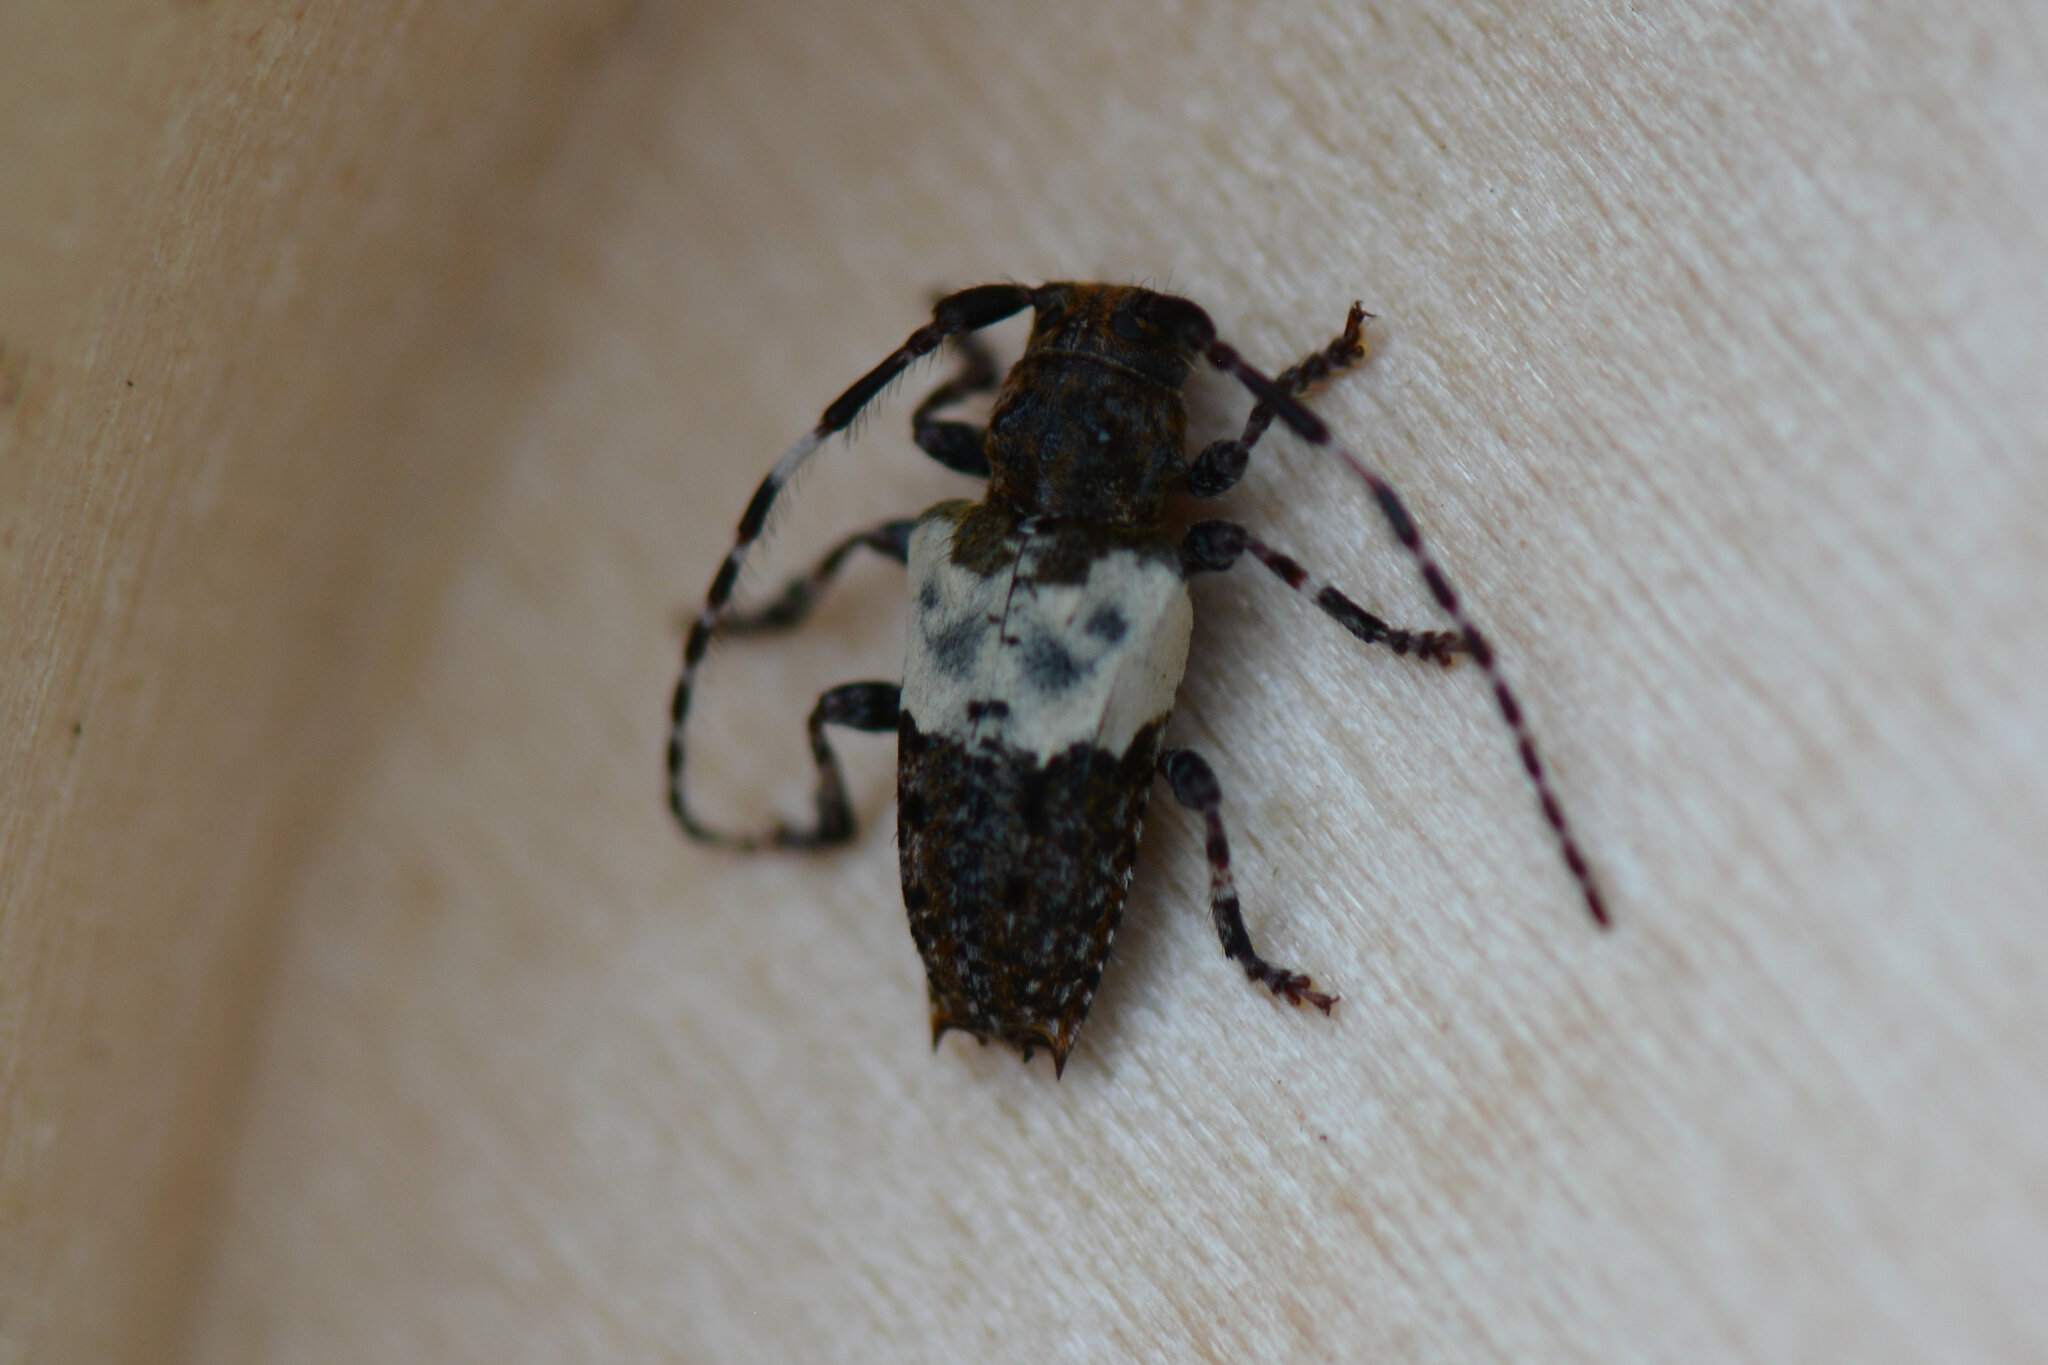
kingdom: Animalia
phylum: Arthropoda
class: Insecta
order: Coleoptera
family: Cerambycidae
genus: Pogonocherus
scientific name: Pogonocherus hispidulus
